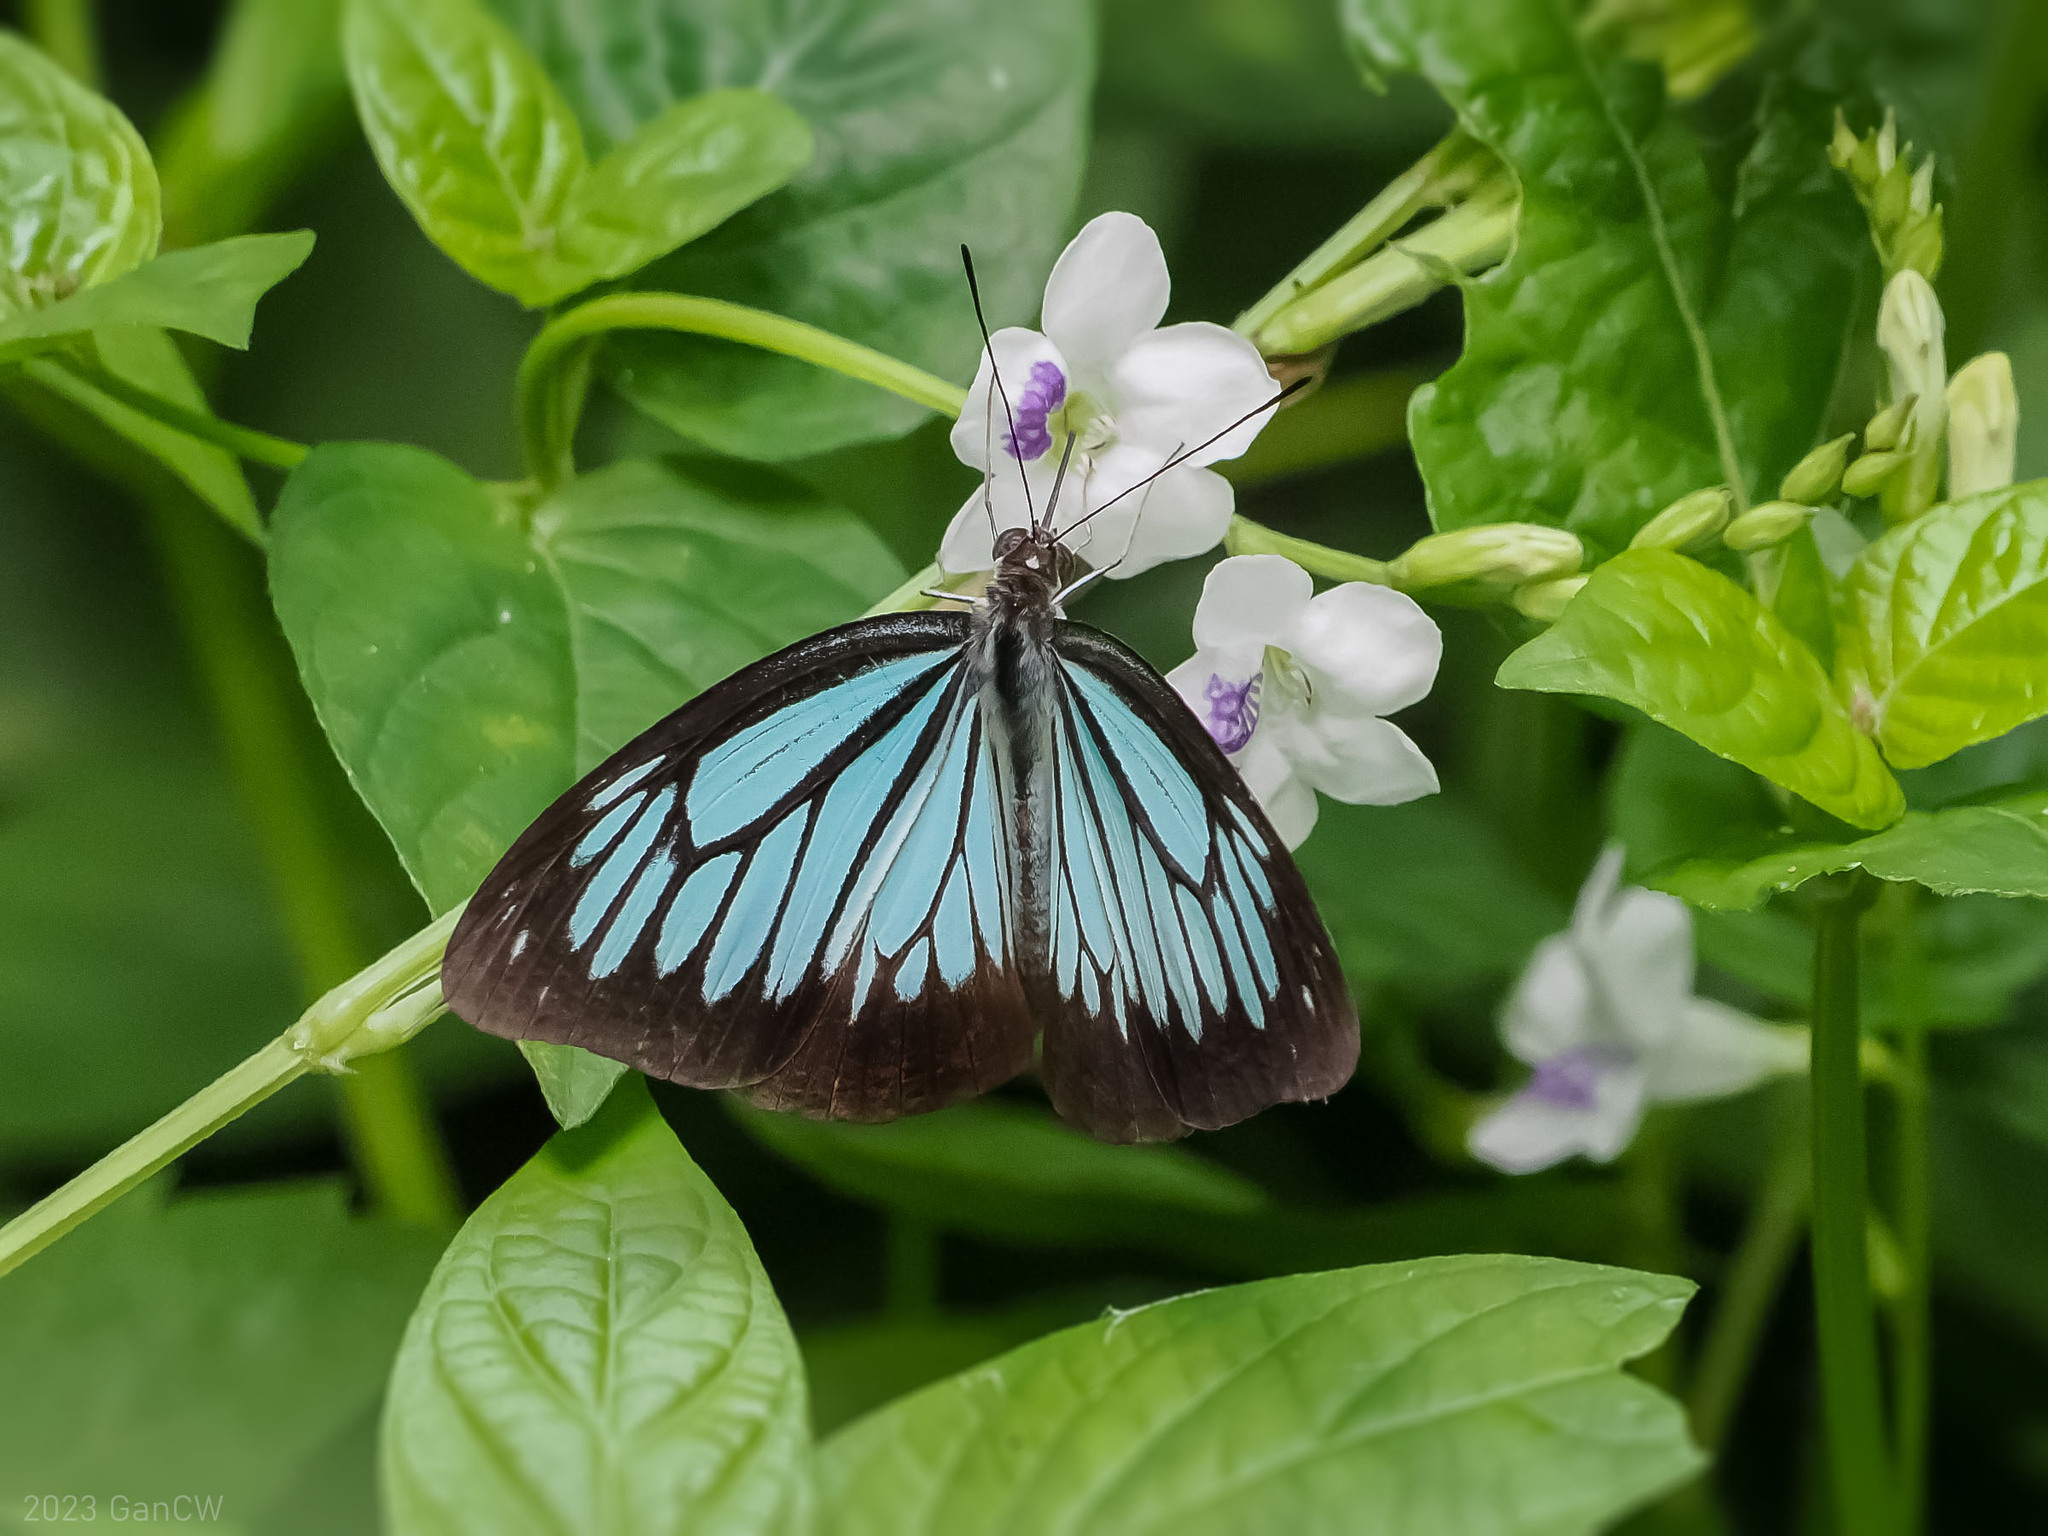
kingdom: Animalia
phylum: Arthropoda
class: Insecta
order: Lepidoptera
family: Pieridae
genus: Pareronia
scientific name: Pareronia boebera
